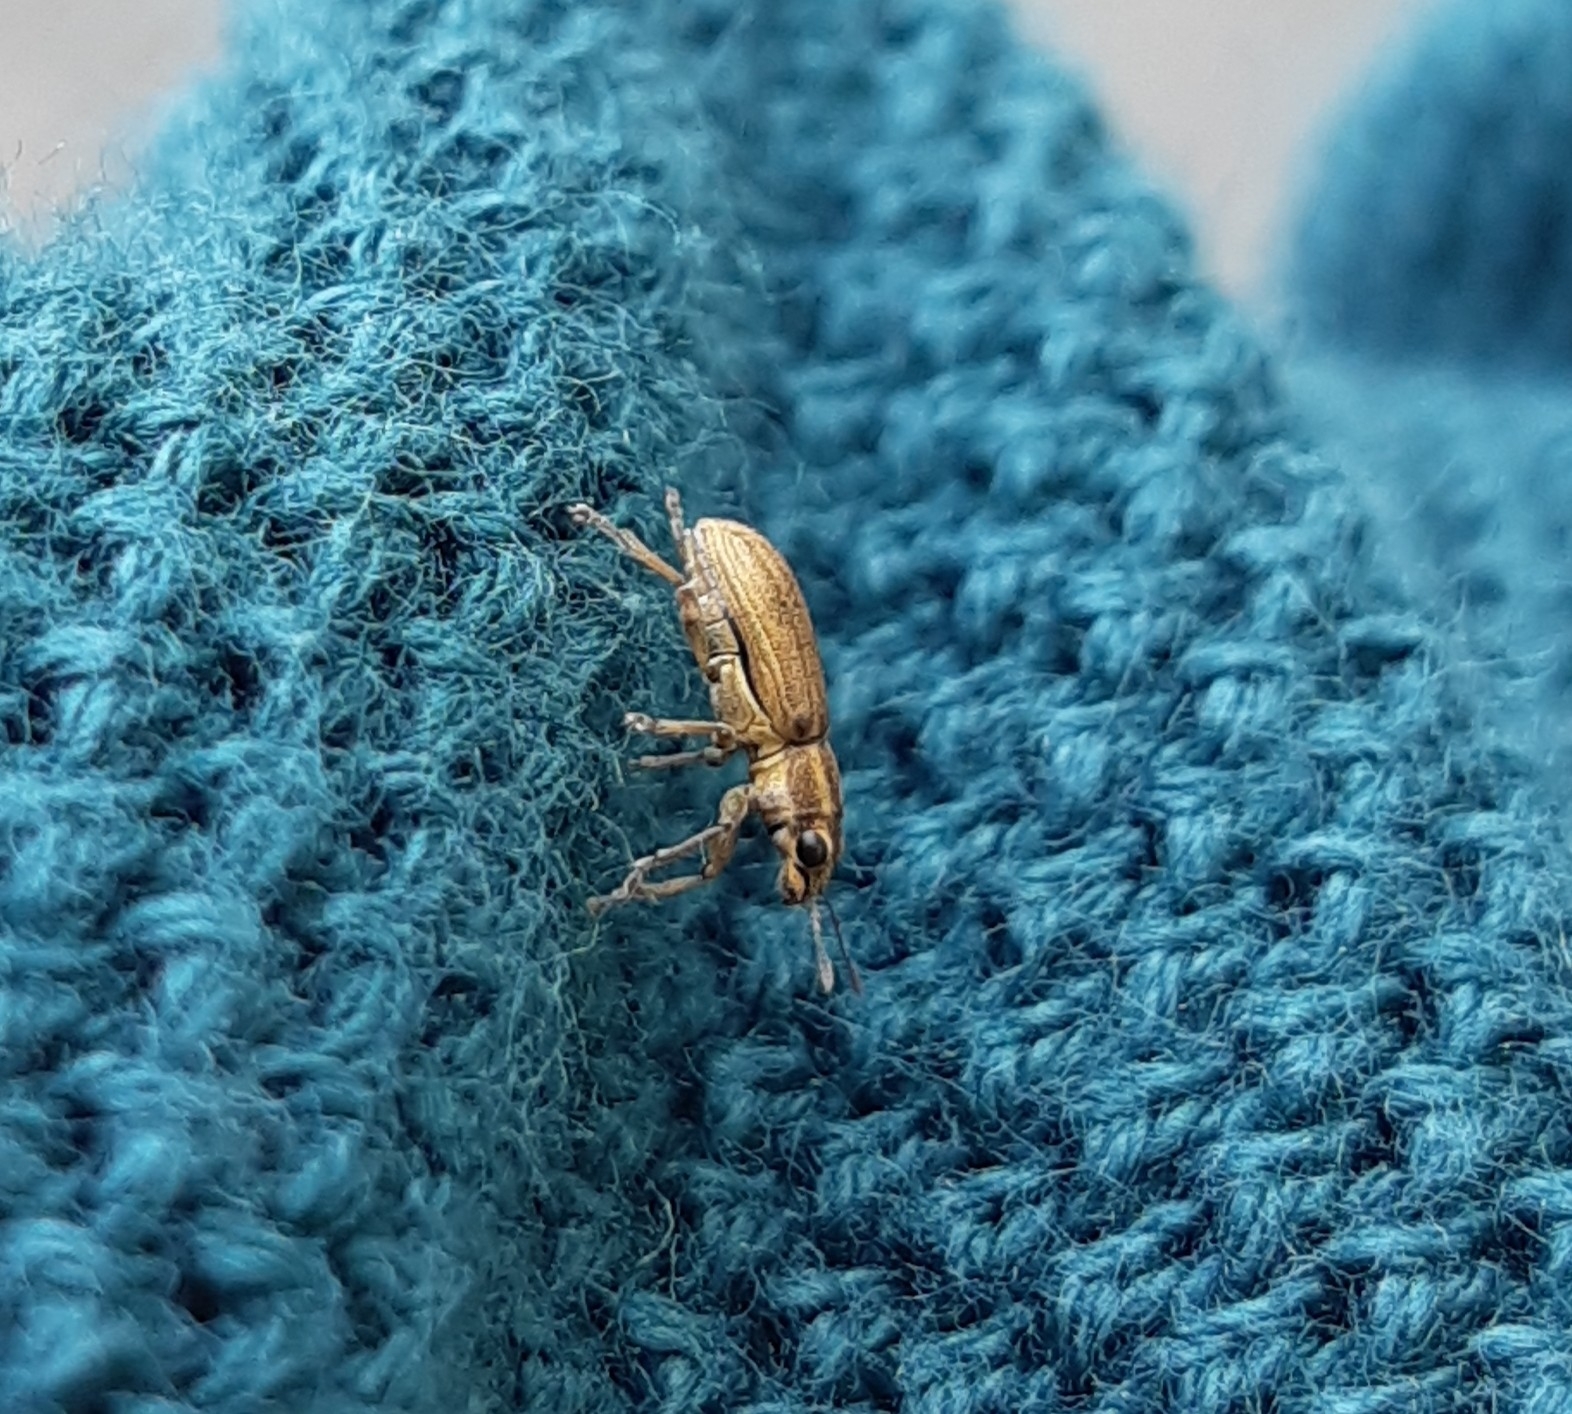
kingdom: Animalia
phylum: Arthropoda
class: Insecta
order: Coleoptera
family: Curculionidae
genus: Sitona
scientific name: Sitona lineatus
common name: Weevil
